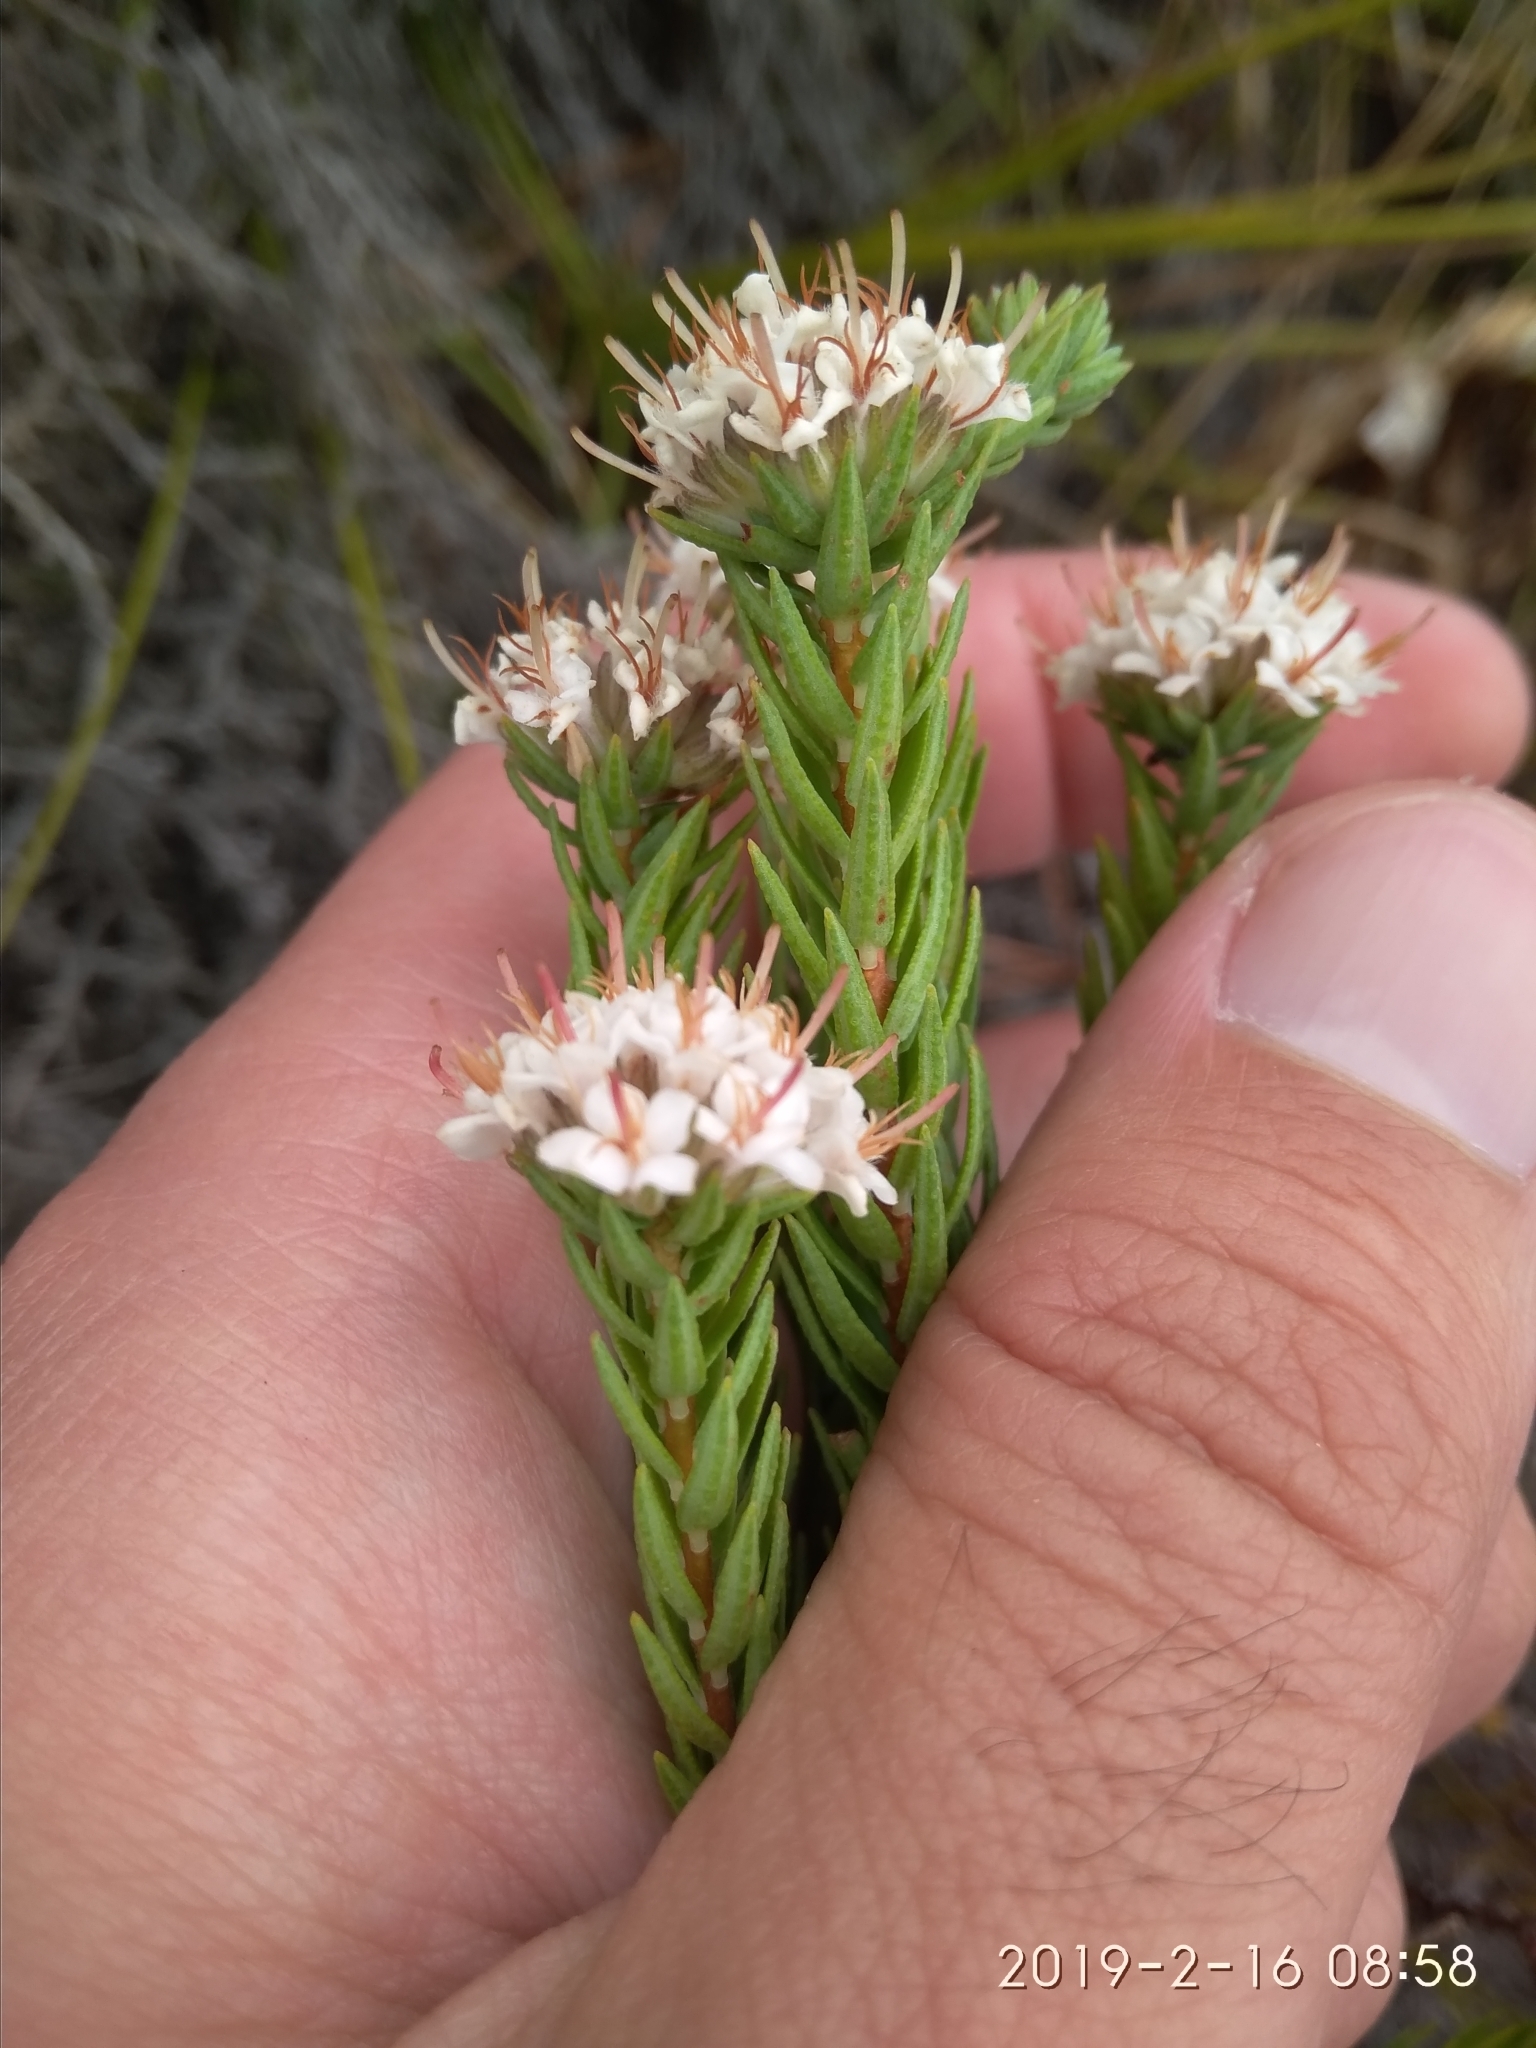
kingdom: Plantae
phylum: Tracheophyta
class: Magnoliopsida
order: Sapindales
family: Rutaceae
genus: Macrostylis
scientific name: Macrostylis villosa
